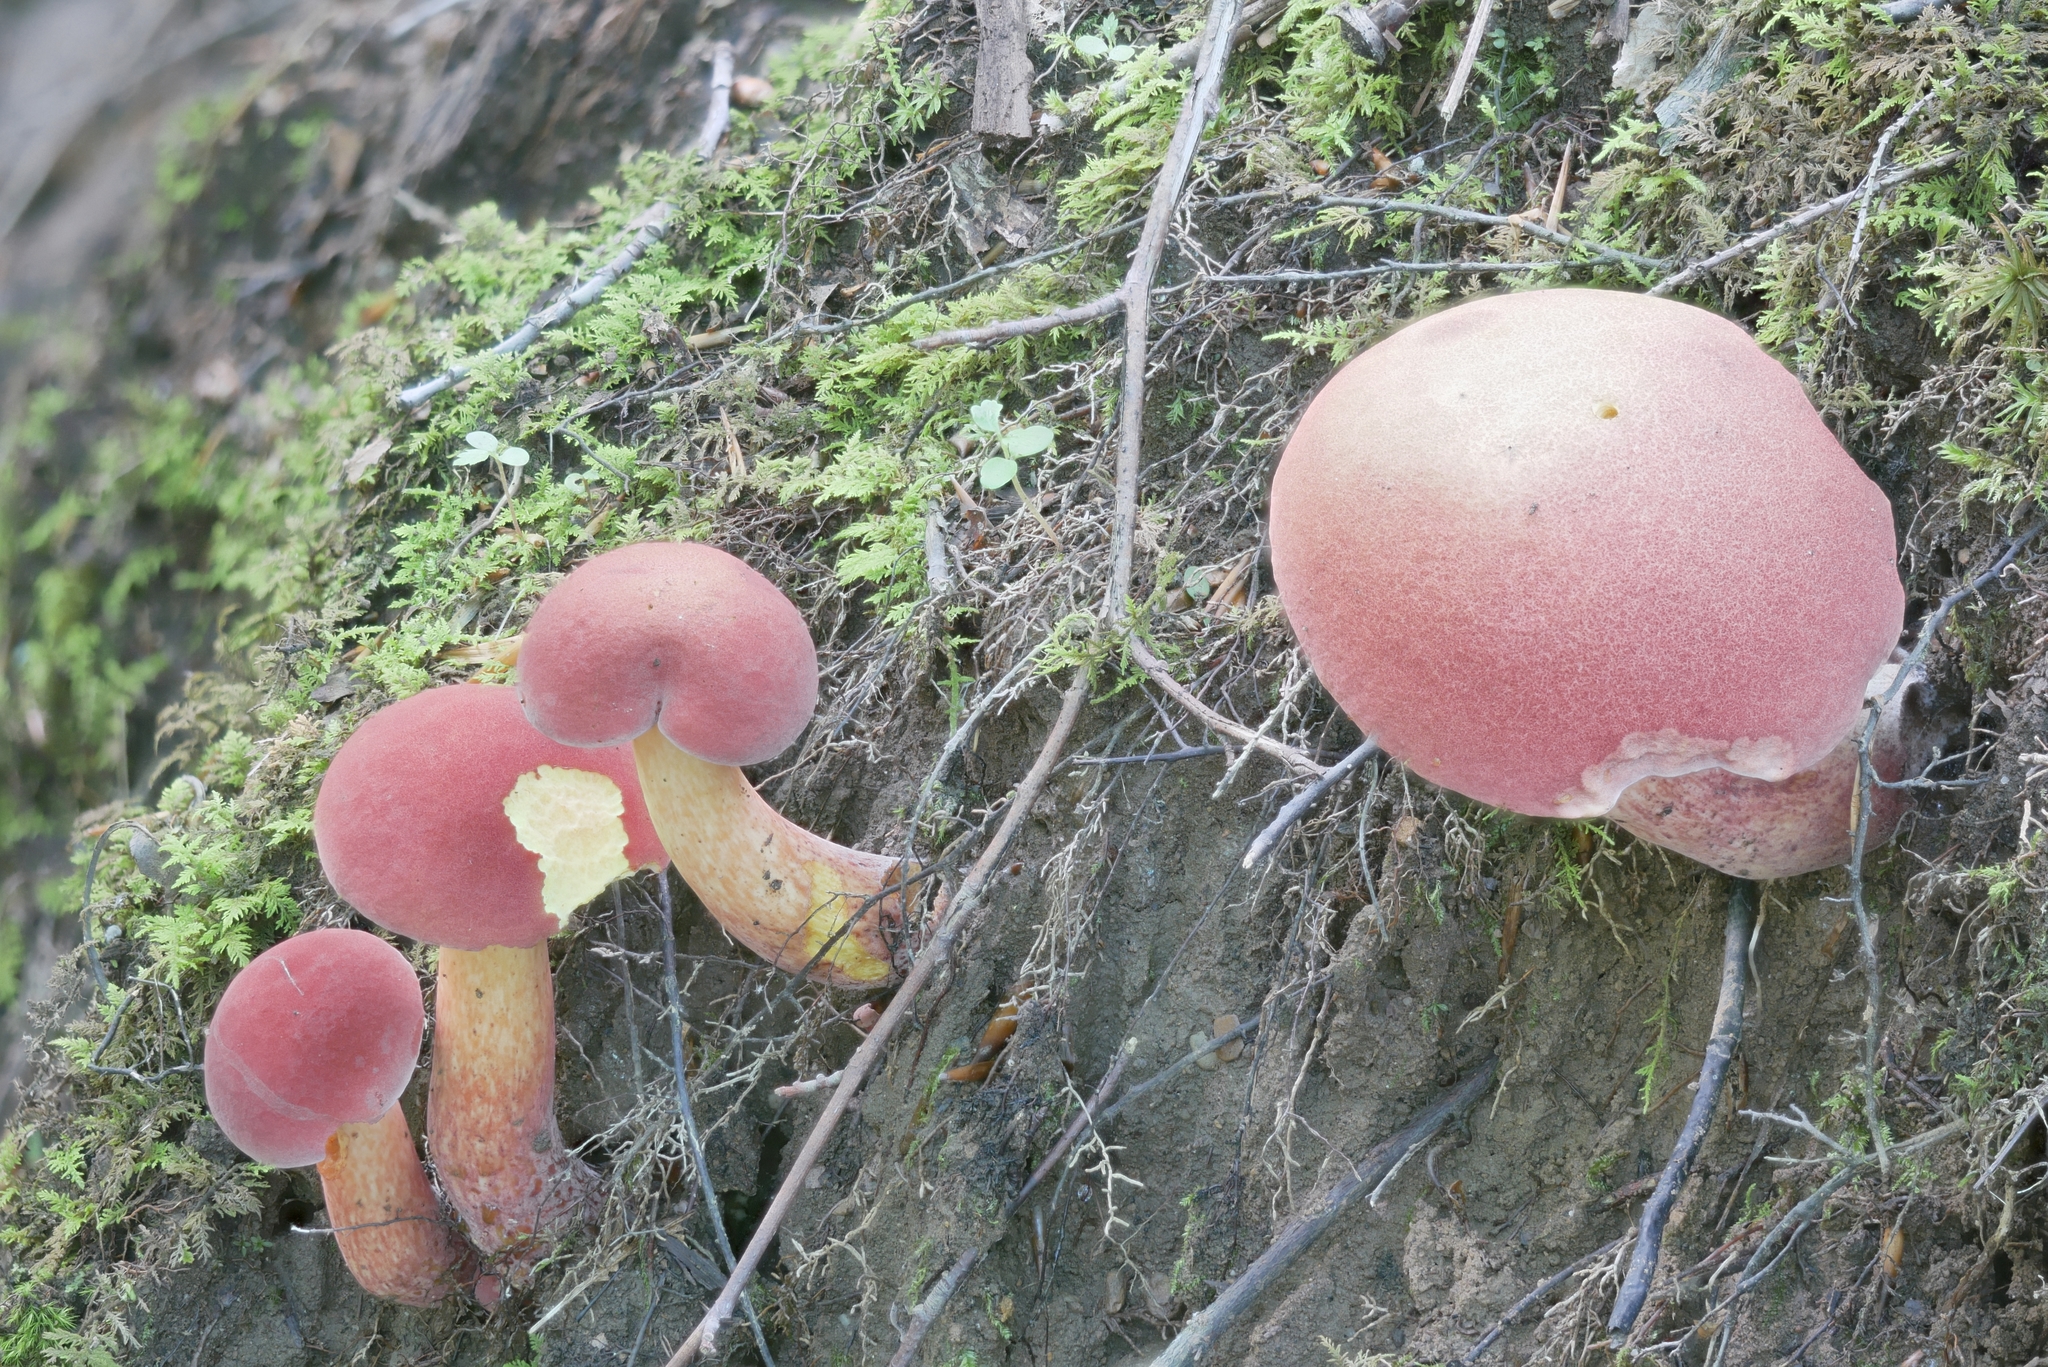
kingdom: Fungi
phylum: Basidiomycota
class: Agaricomycetes
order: Boletales
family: Boletaceae
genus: Pulchroboletus
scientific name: Pulchroboletus sclerotiorum
